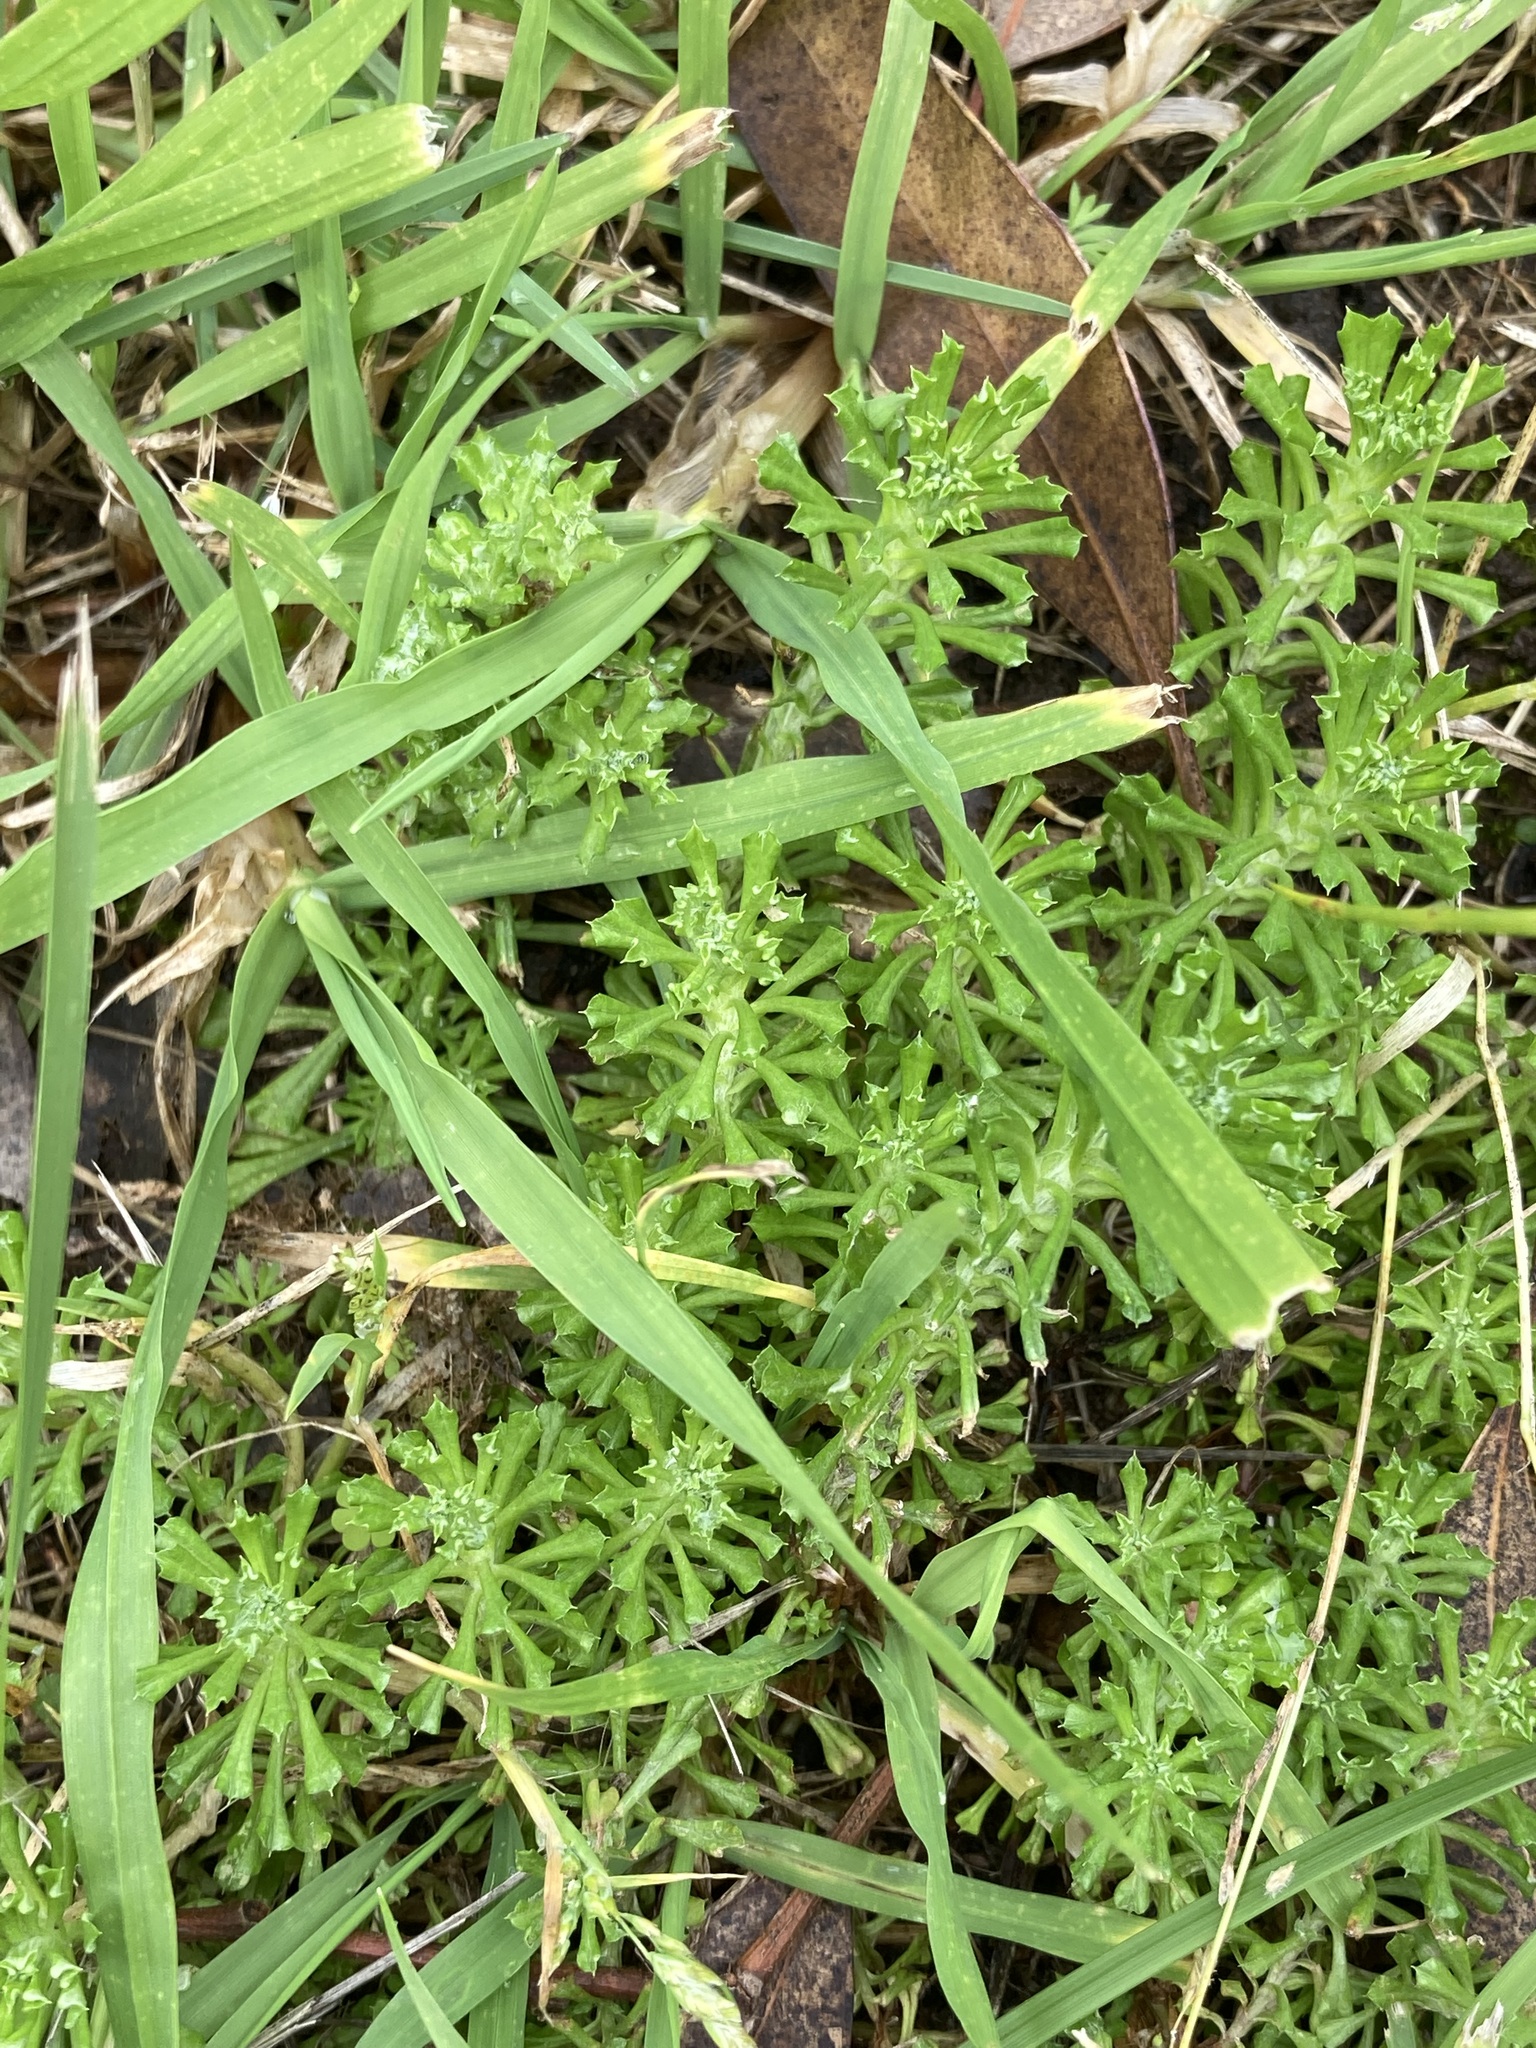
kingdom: Plantae
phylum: Tracheophyta
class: Magnoliopsida
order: Asterales
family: Asteraceae
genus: Facelis
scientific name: Facelis retusa
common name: Annual trampweed
